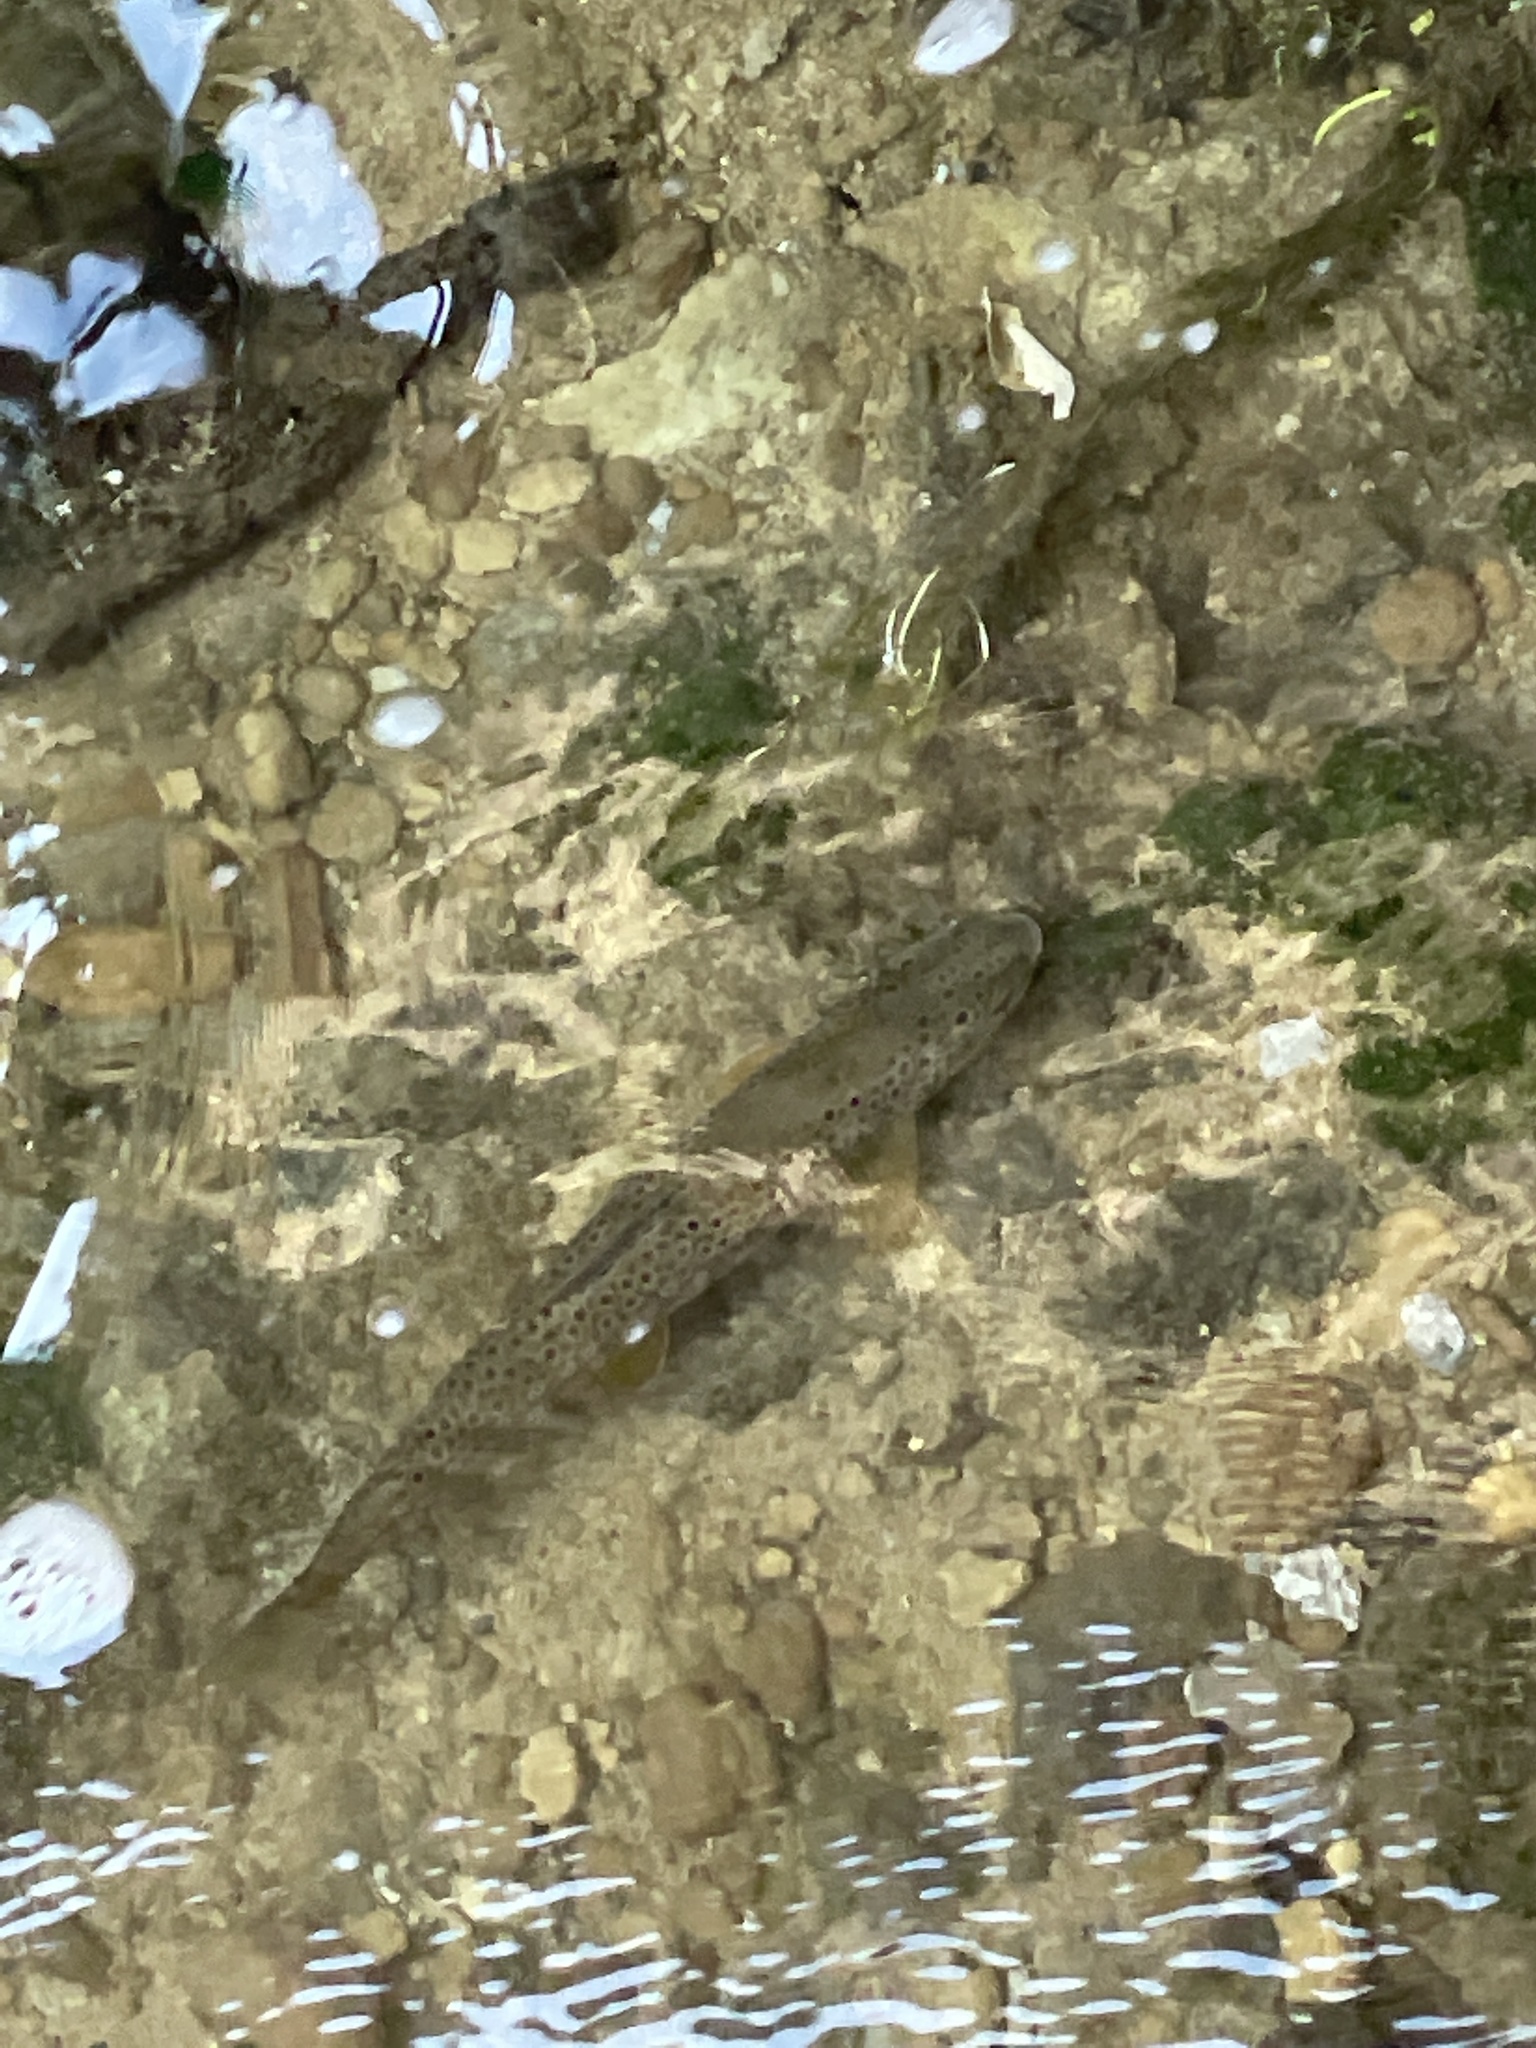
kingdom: Animalia
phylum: Chordata
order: Salmoniformes
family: Salmonidae
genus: Salmo
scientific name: Salmo trutta
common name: Brown trout
